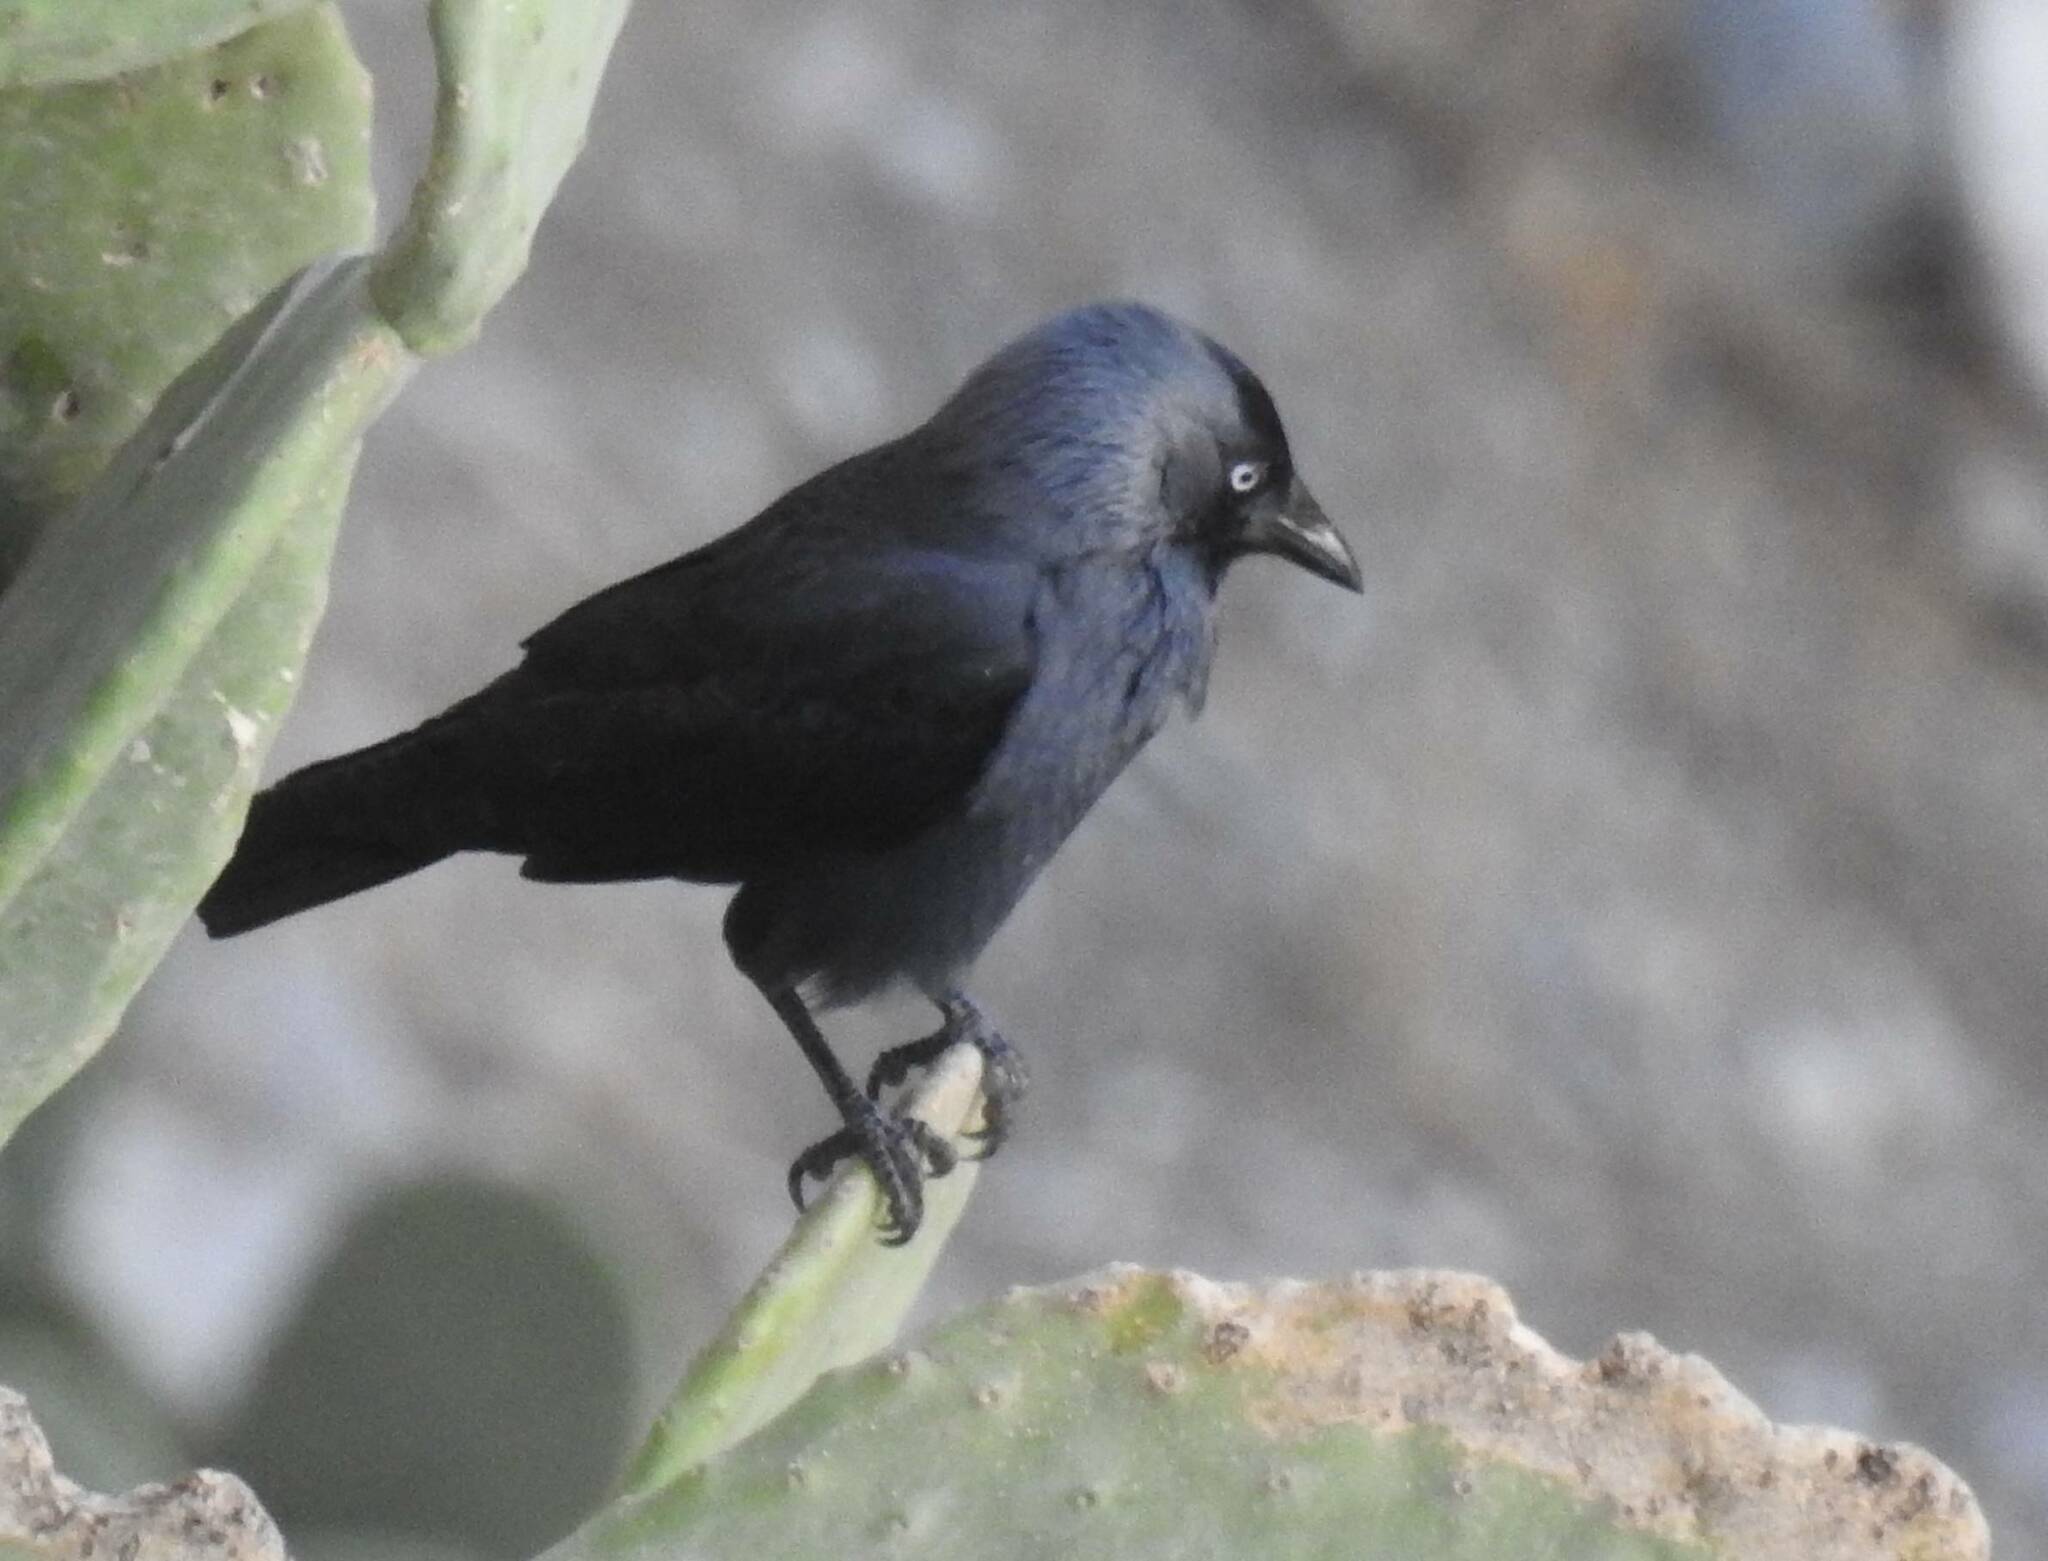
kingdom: Animalia
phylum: Chordata
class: Aves
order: Passeriformes
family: Corvidae
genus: Coloeus
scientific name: Coloeus monedula
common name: Western jackdaw
